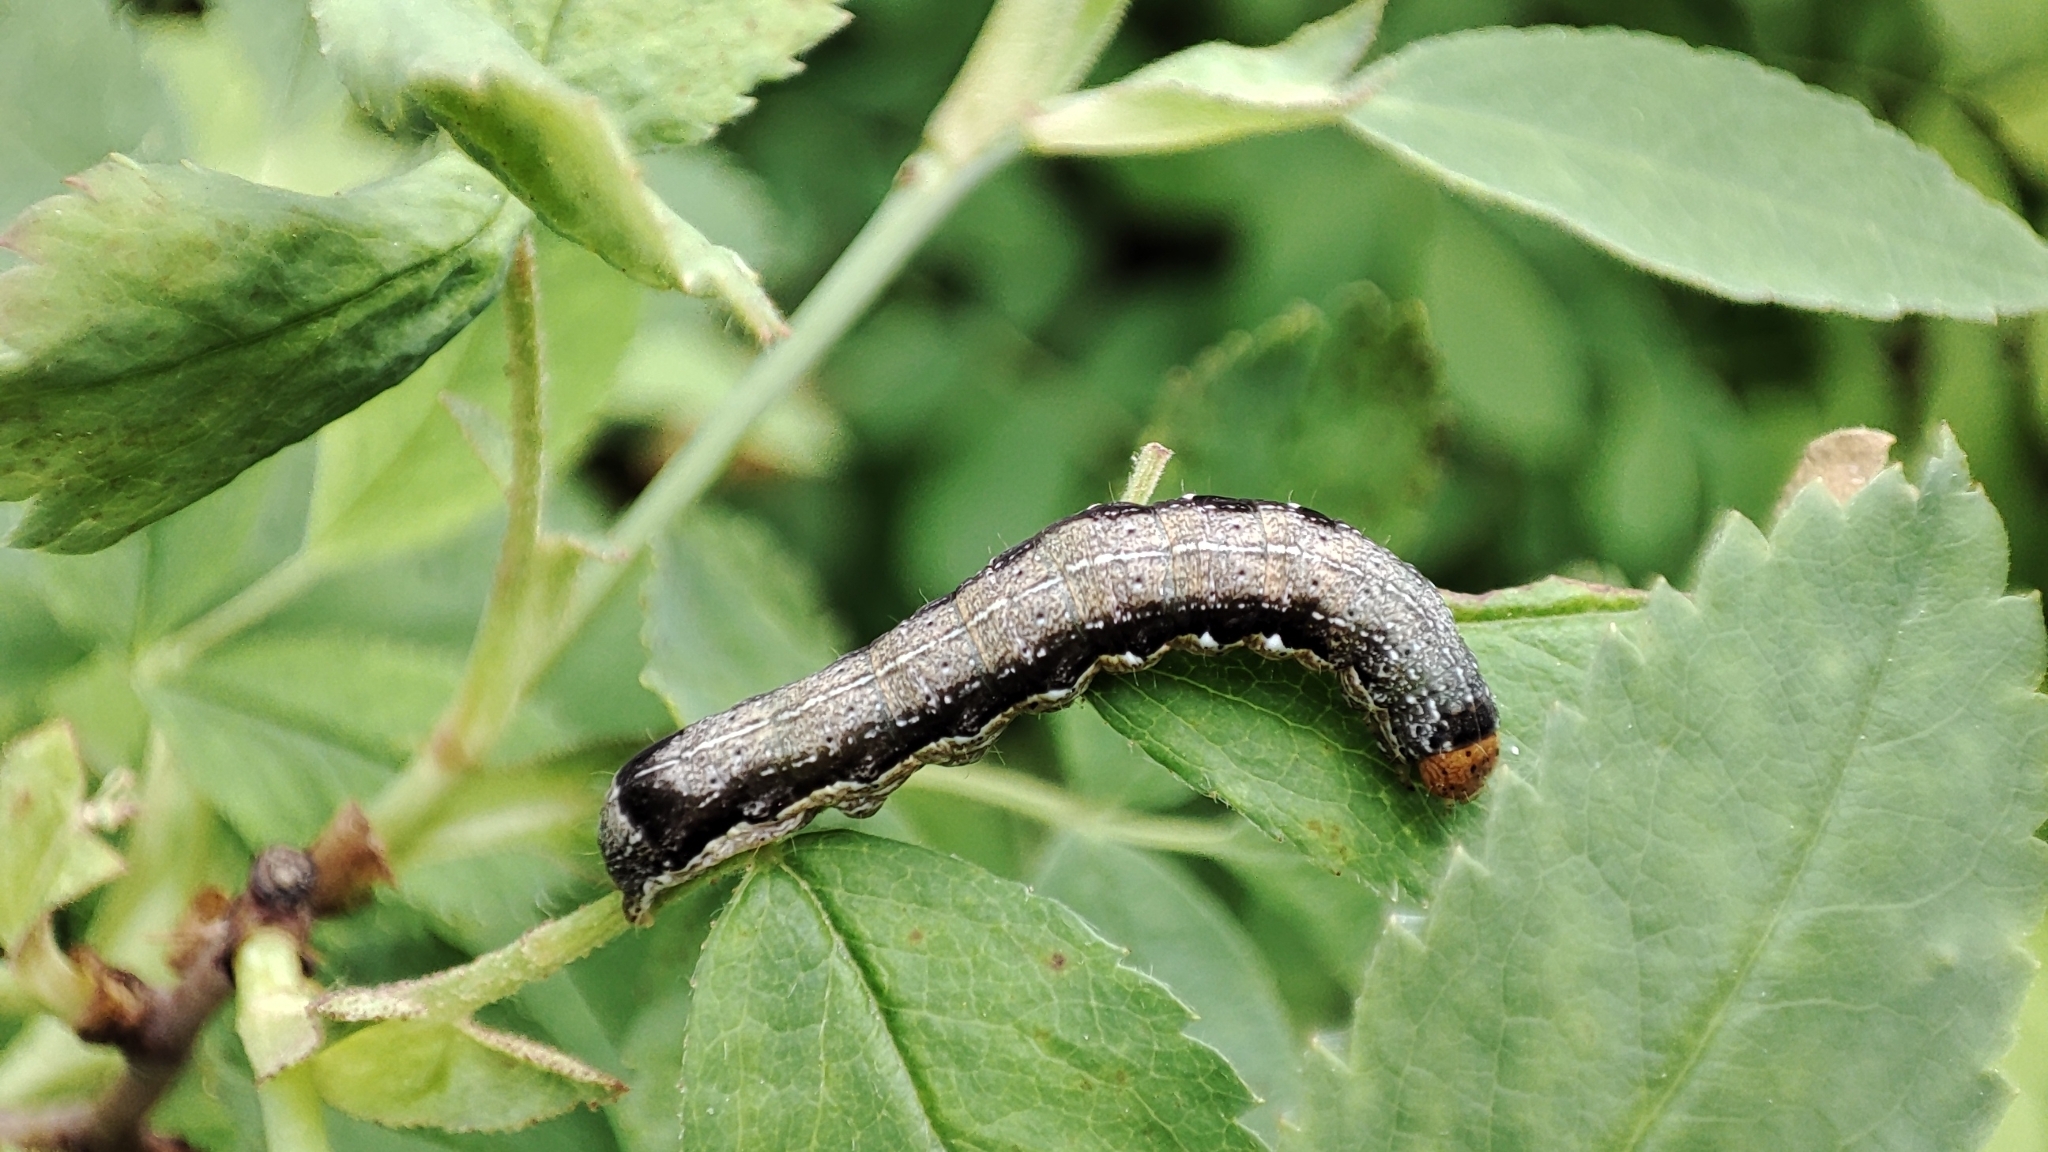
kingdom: Animalia
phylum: Arthropoda
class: Insecta
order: Lepidoptera
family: Noctuidae
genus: Anorthoa
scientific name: Anorthoa munda
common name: Twin-spotted quaker
